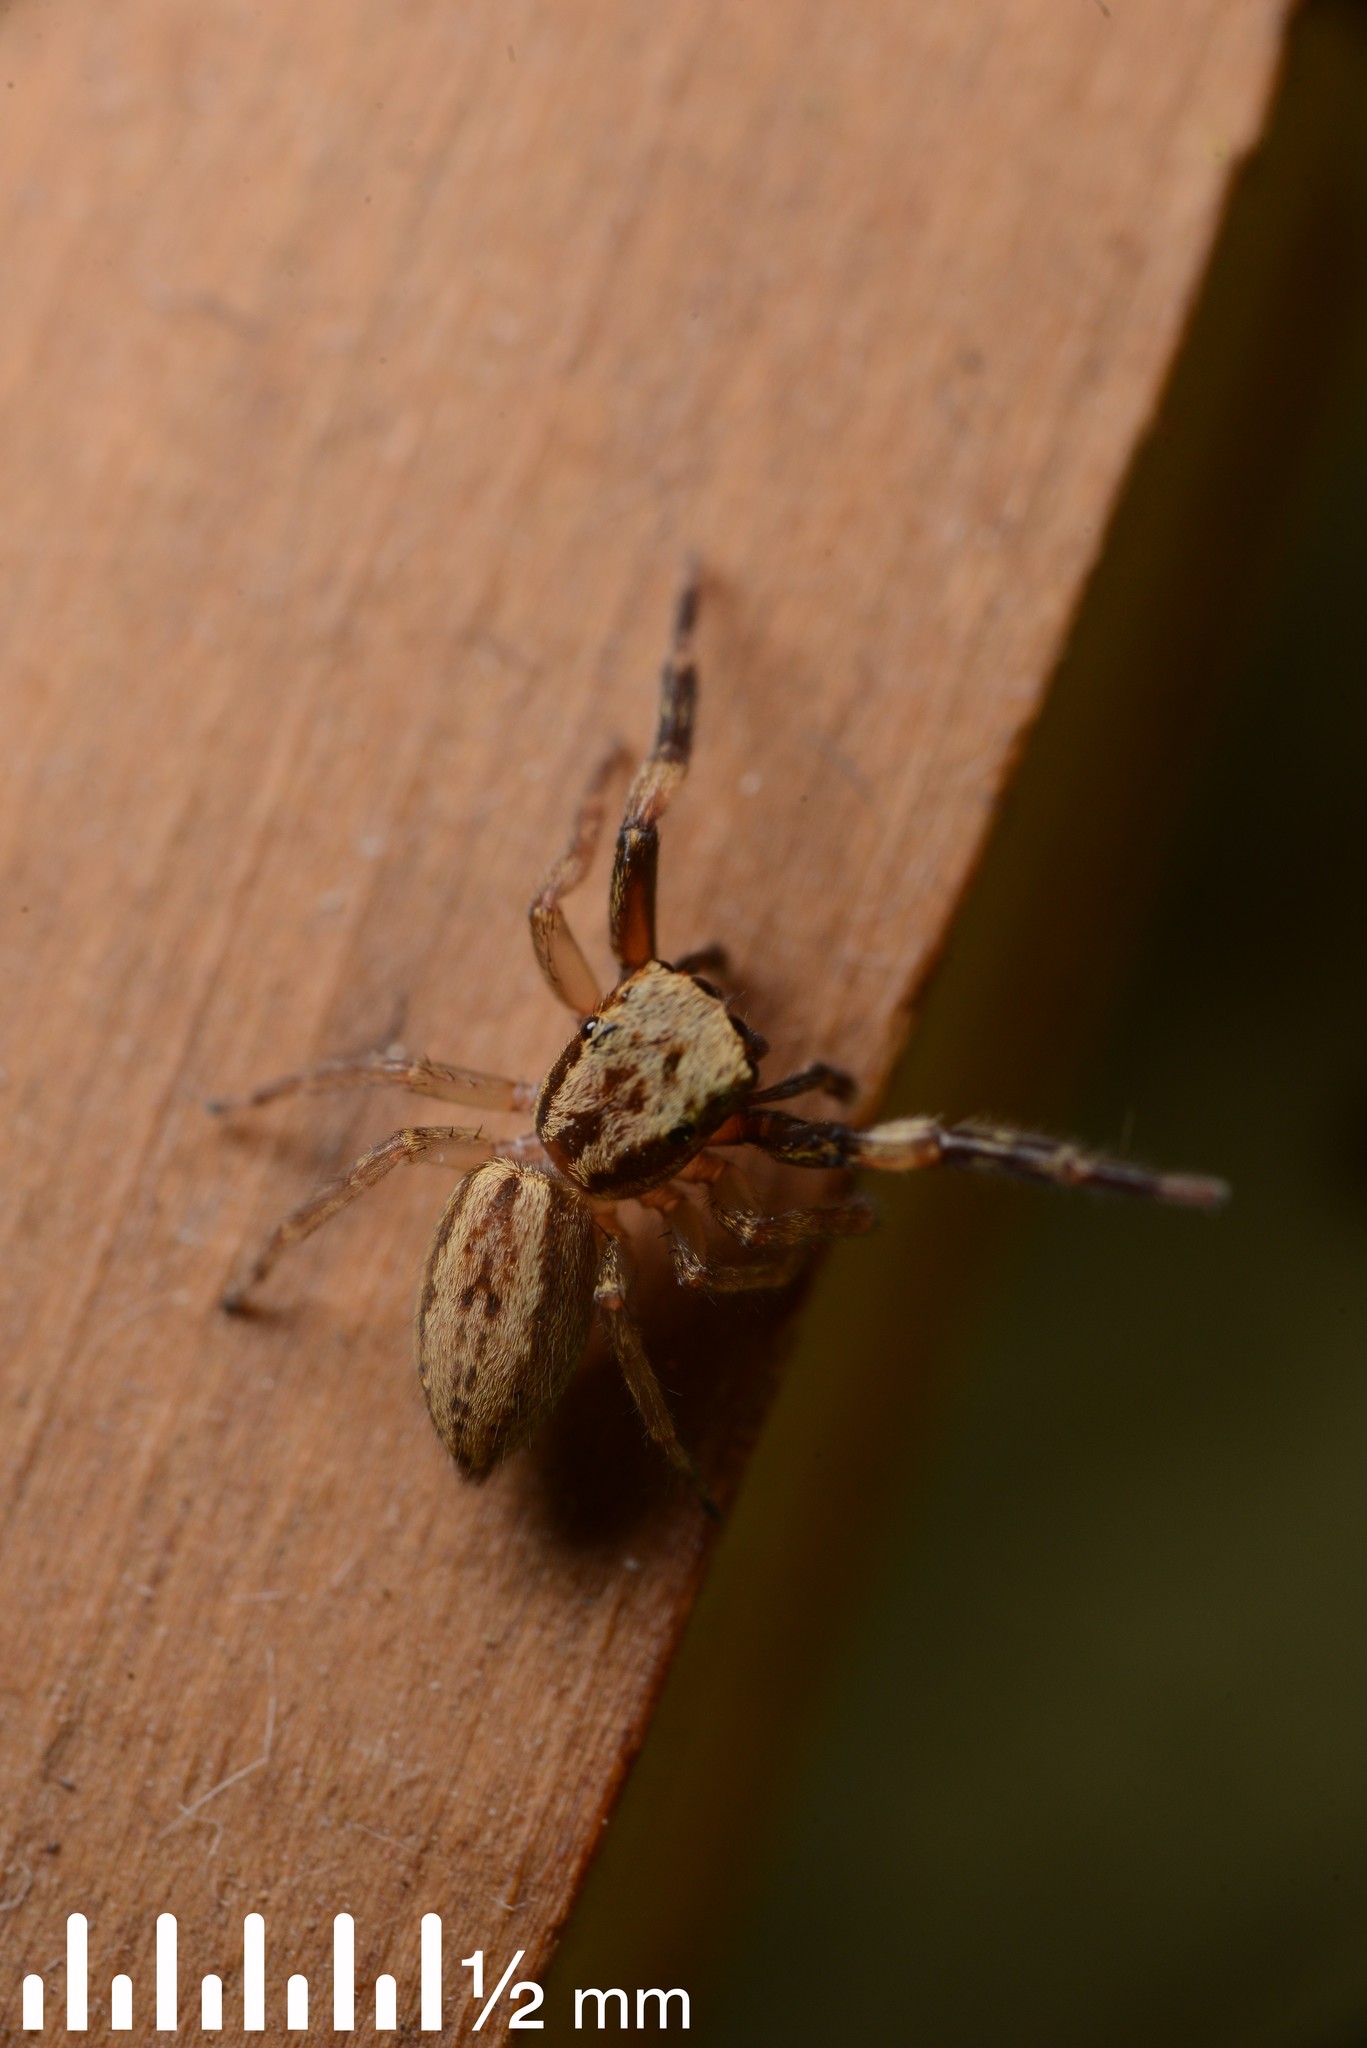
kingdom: Animalia
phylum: Arthropoda
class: Arachnida
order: Araneae
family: Salticidae
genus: Trite
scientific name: Trite auricoma
